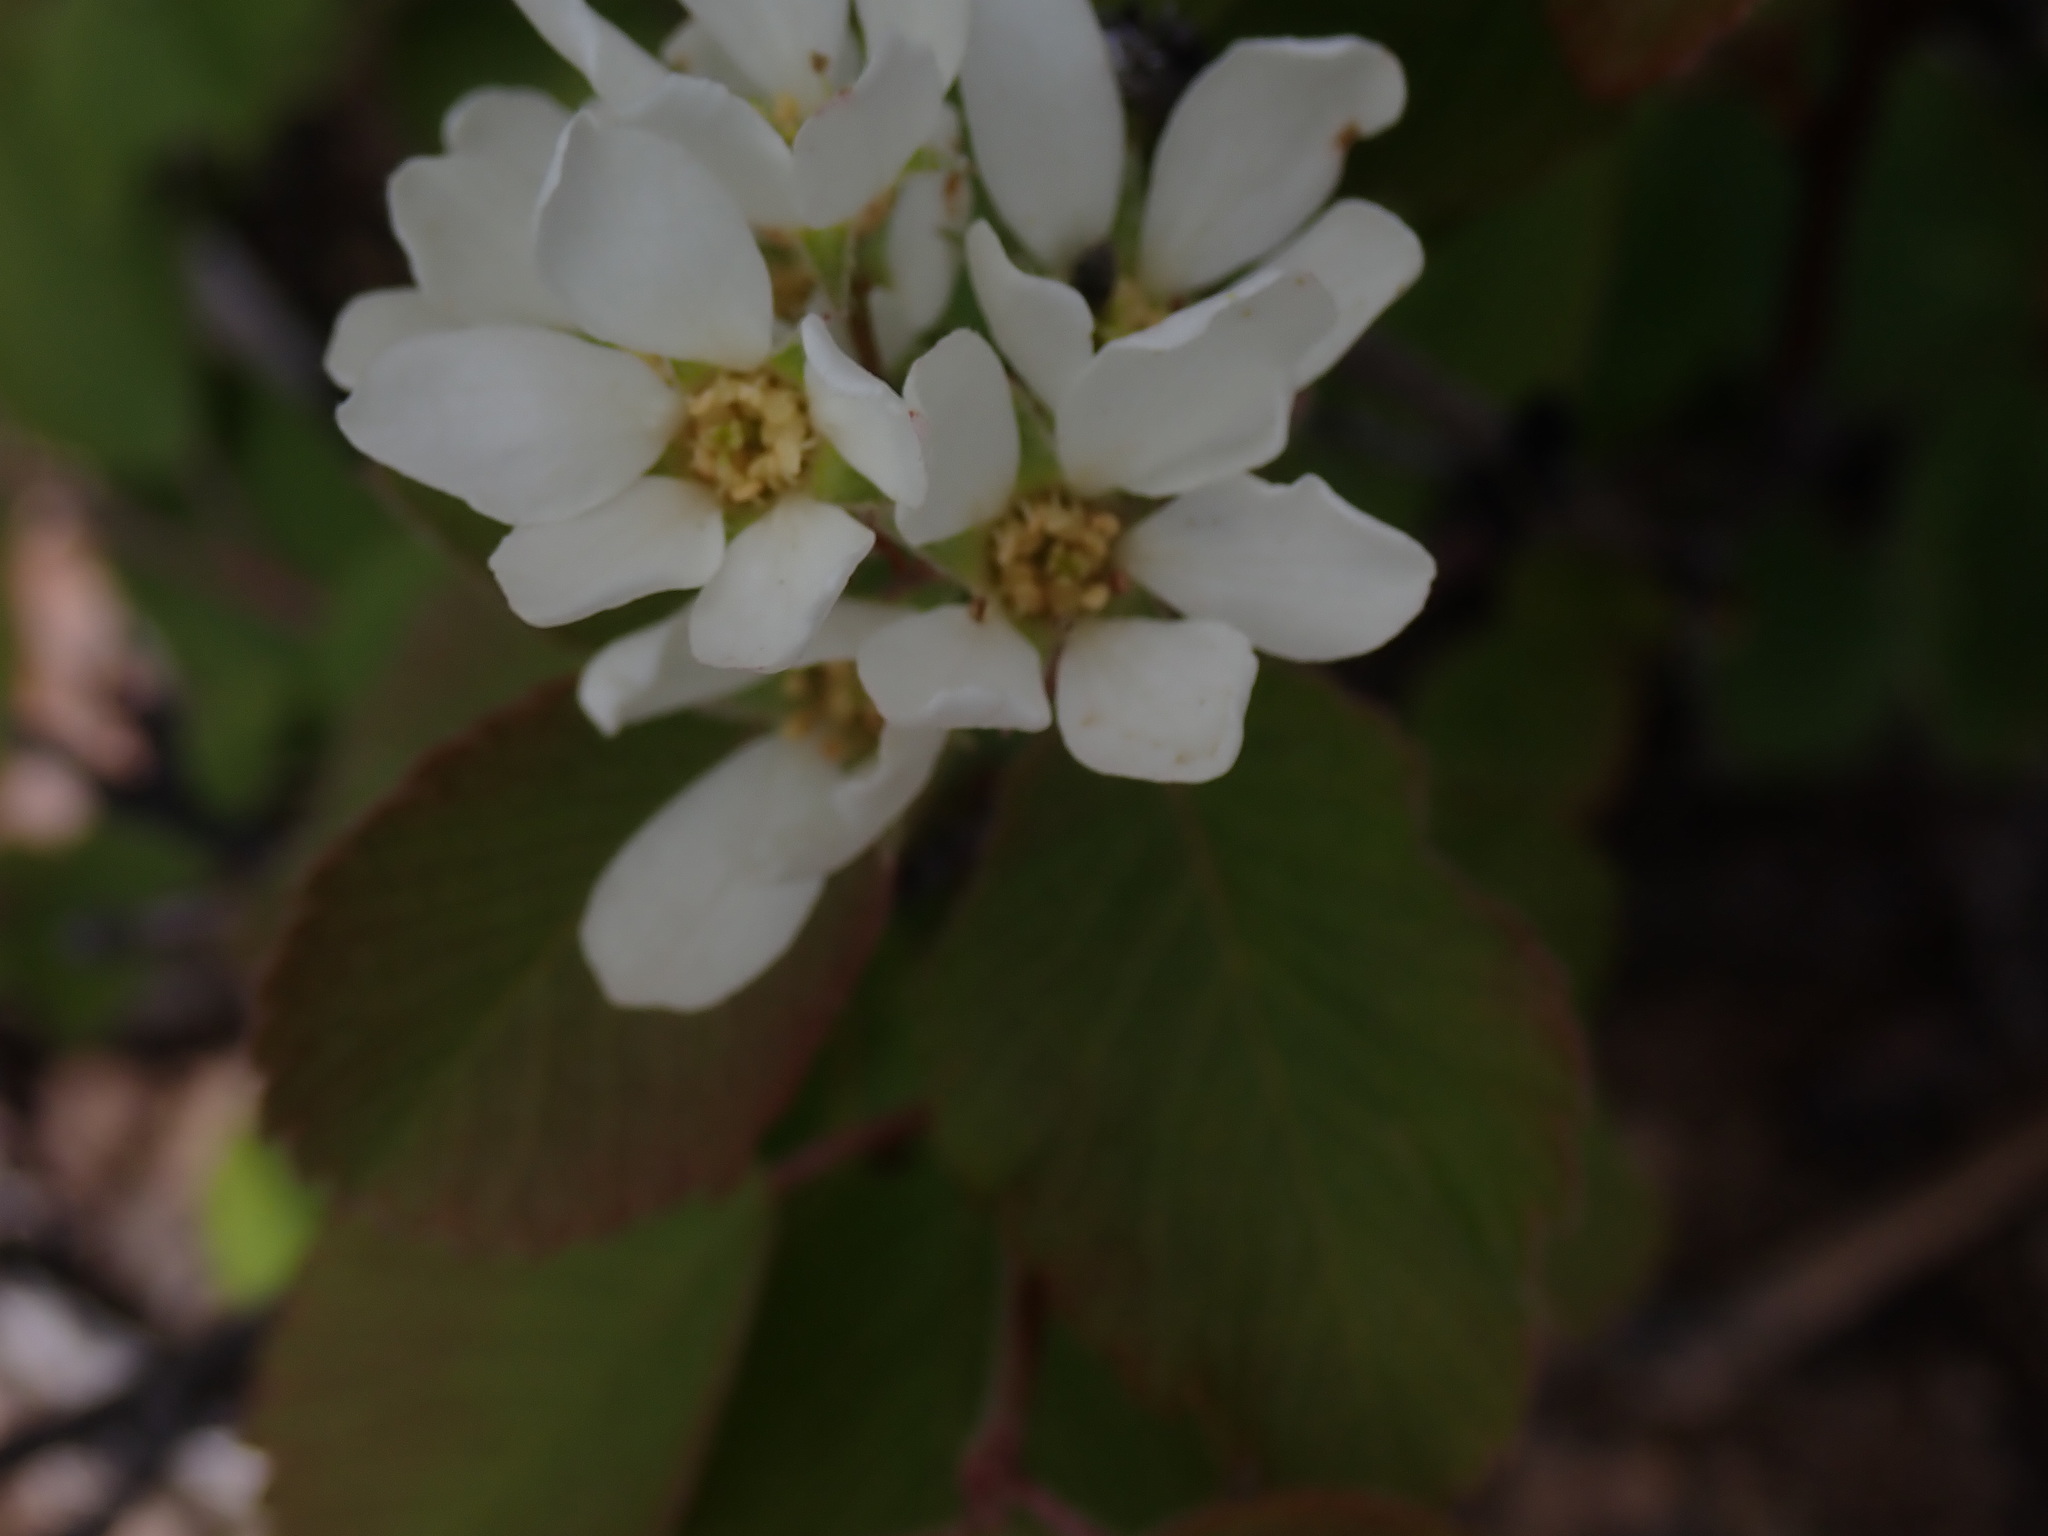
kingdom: Plantae
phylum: Tracheophyta
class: Magnoliopsida
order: Rosales
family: Rosaceae
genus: Amelanchier
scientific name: Amelanchier alnifolia
